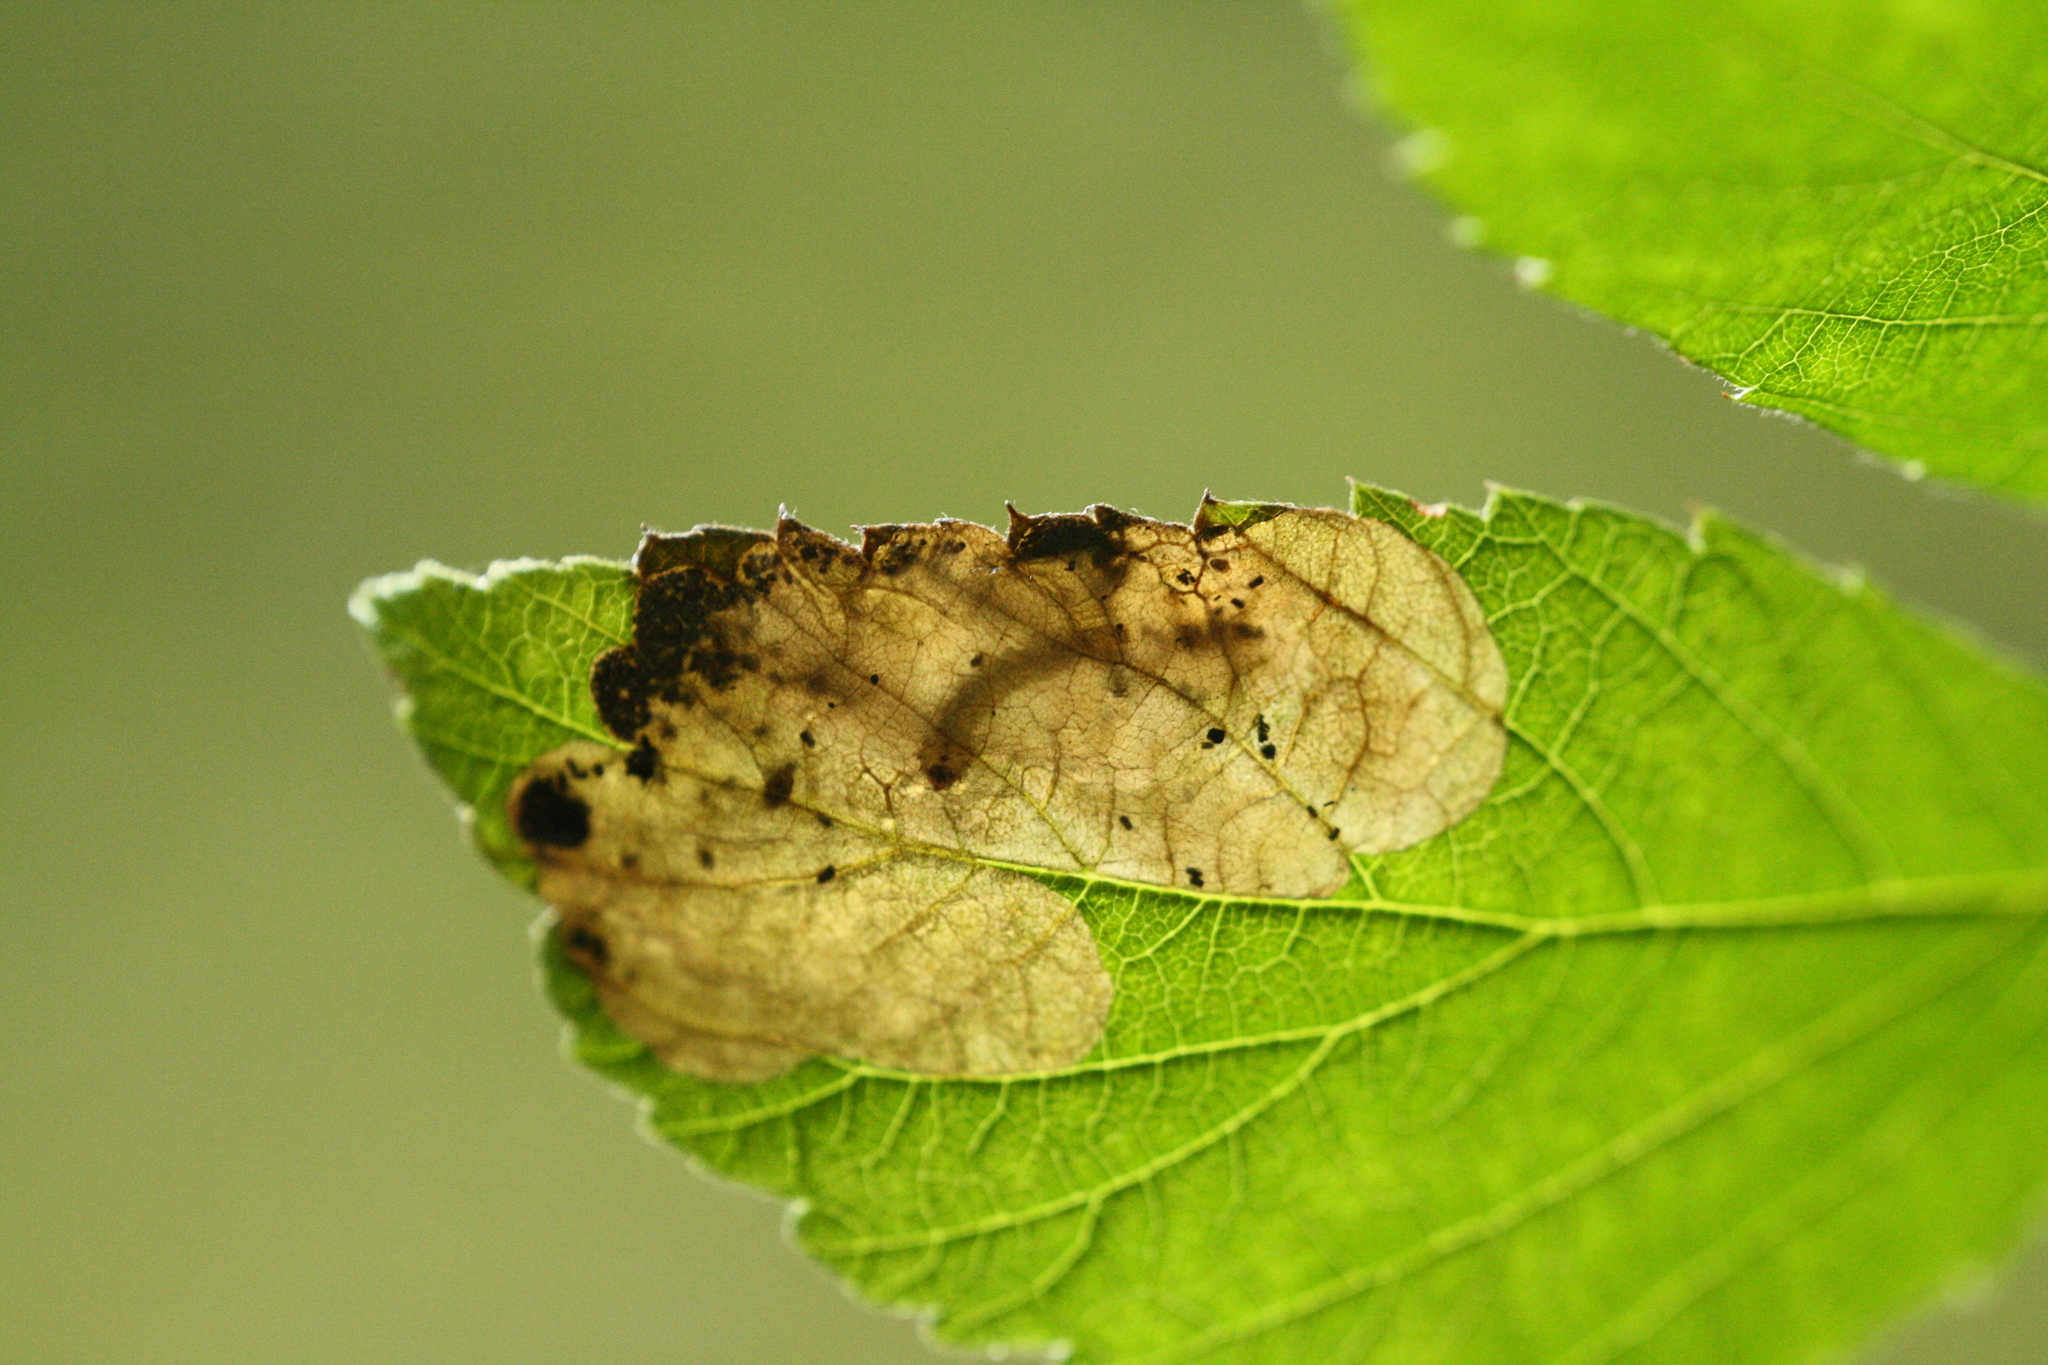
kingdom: Animalia
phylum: Arthropoda
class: Insecta
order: Hymenoptera
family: Tenthredinidae
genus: Metallus
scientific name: Metallus albipes
